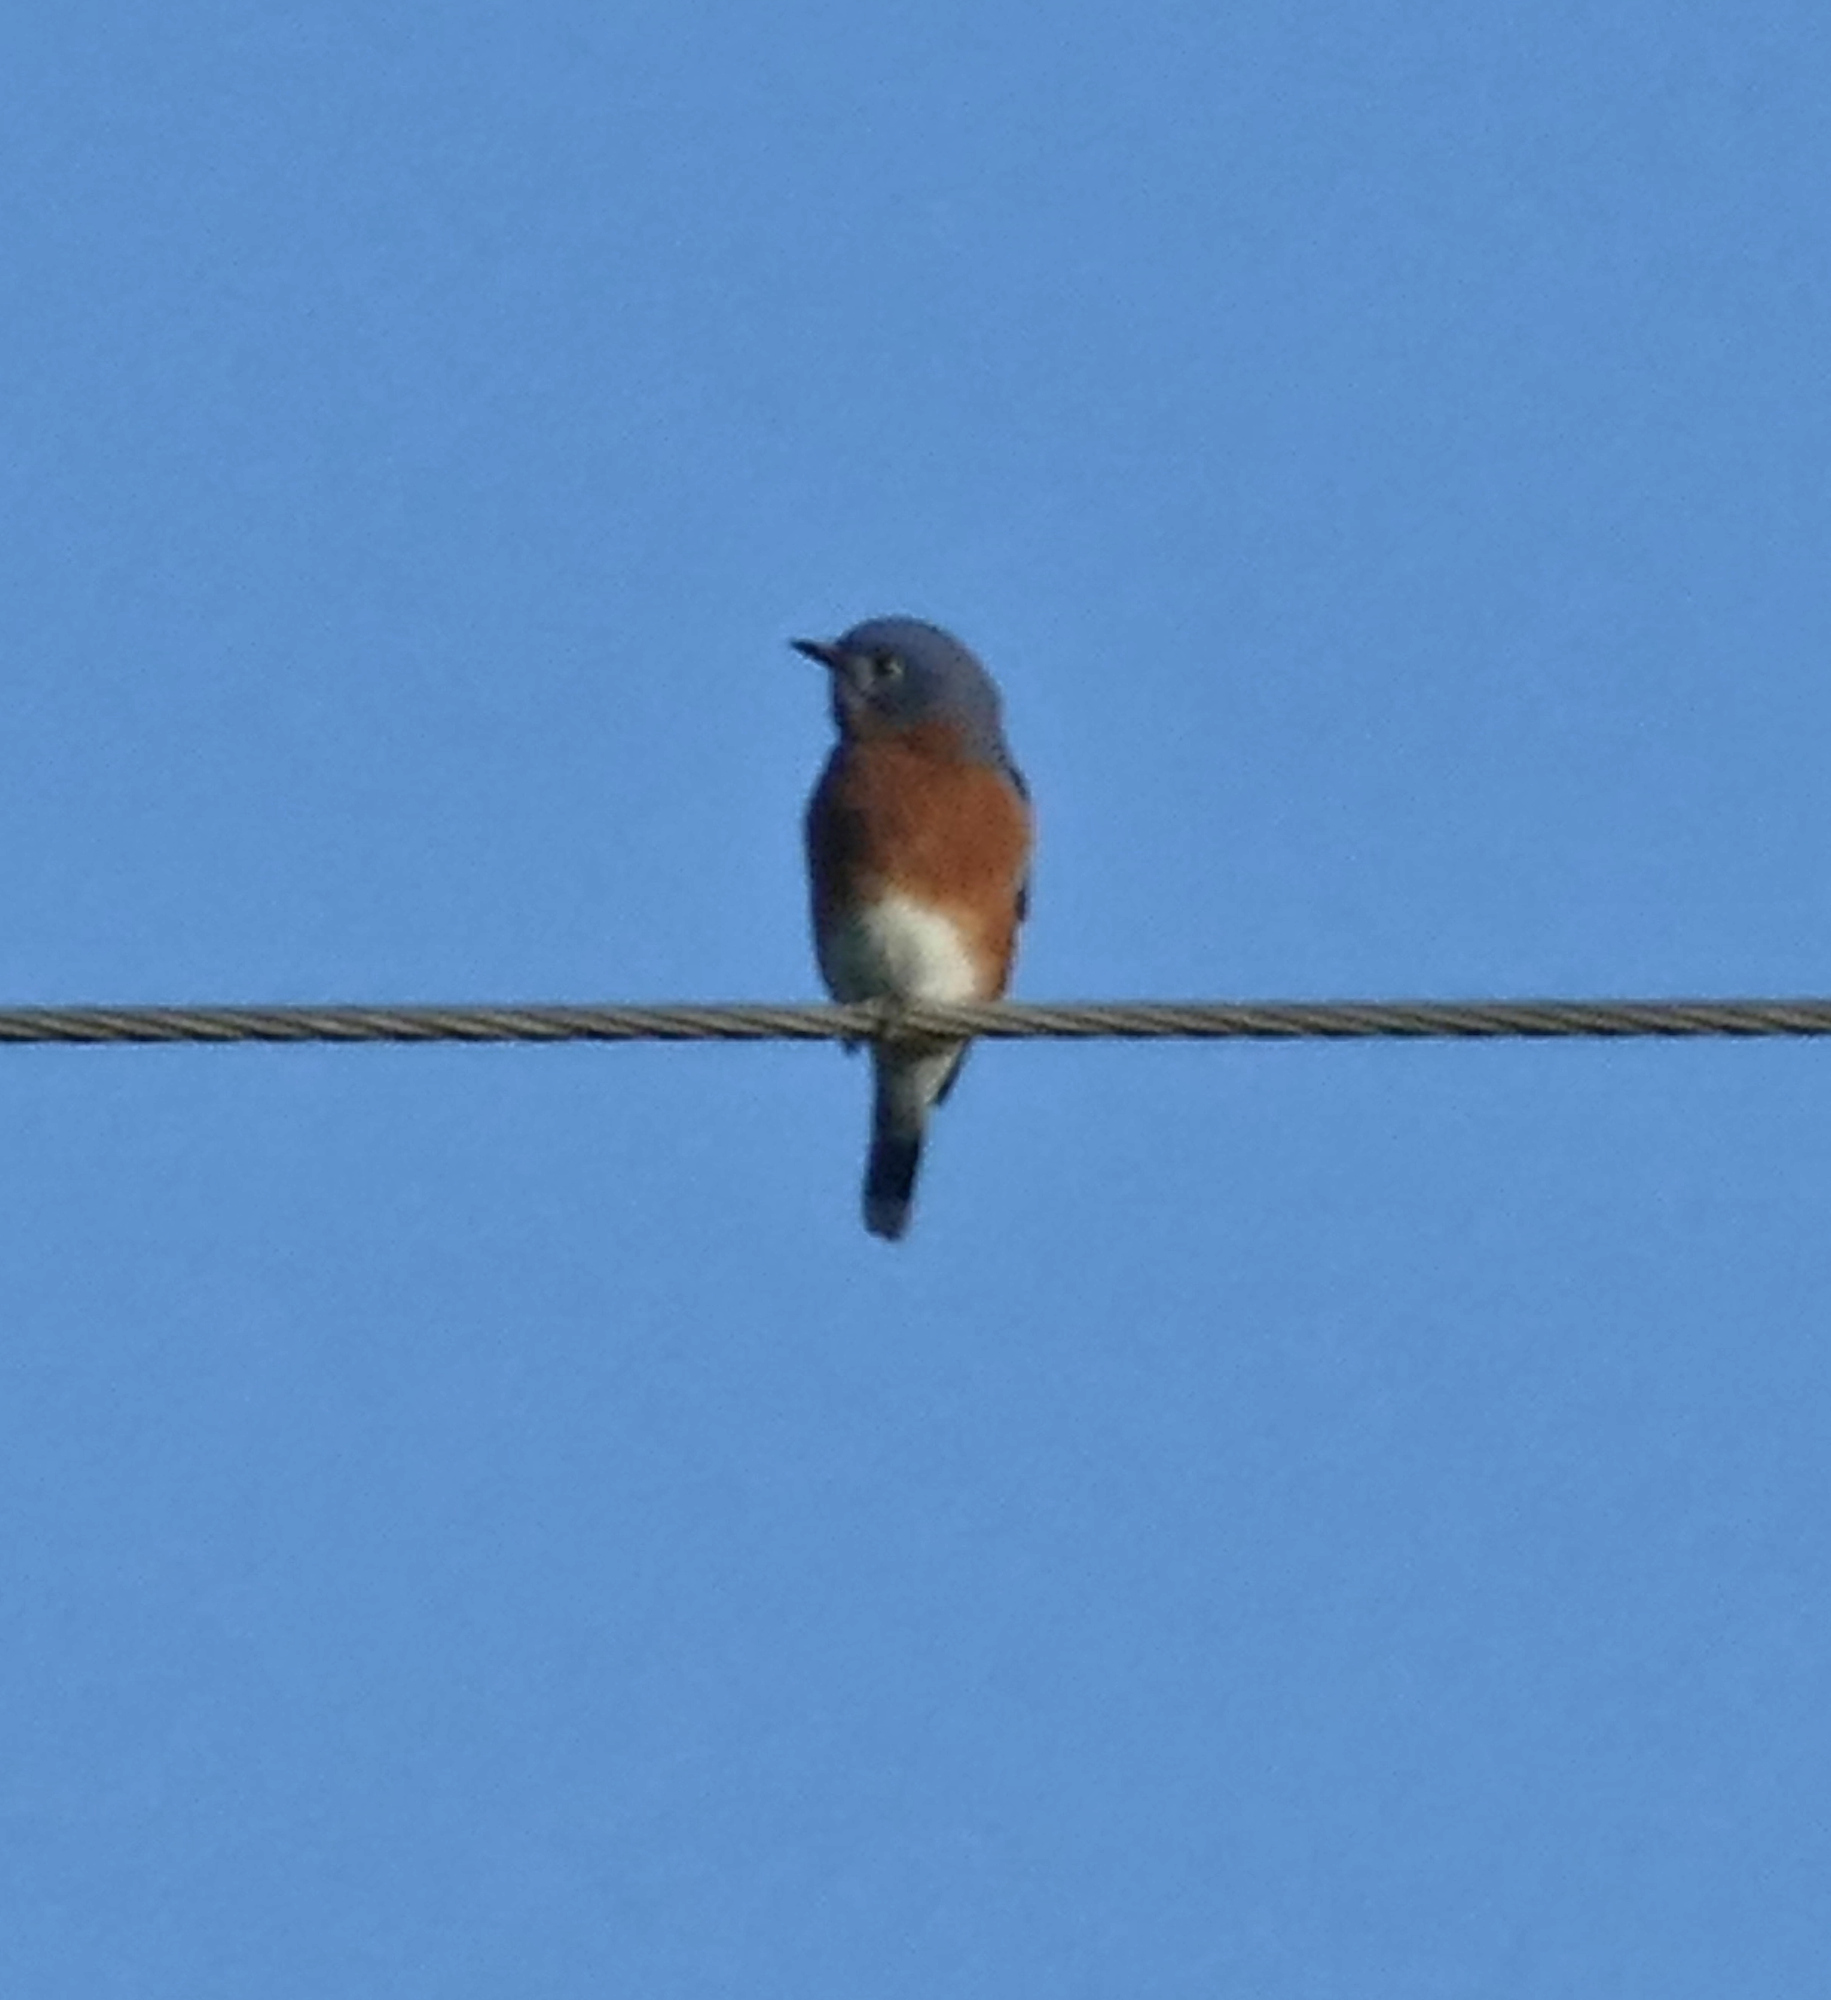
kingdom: Animalia
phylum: Chordata
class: Aves
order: Passeriformes
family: Turdidae
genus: Sialia
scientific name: Sialia sialis
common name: Eastern bluebird
